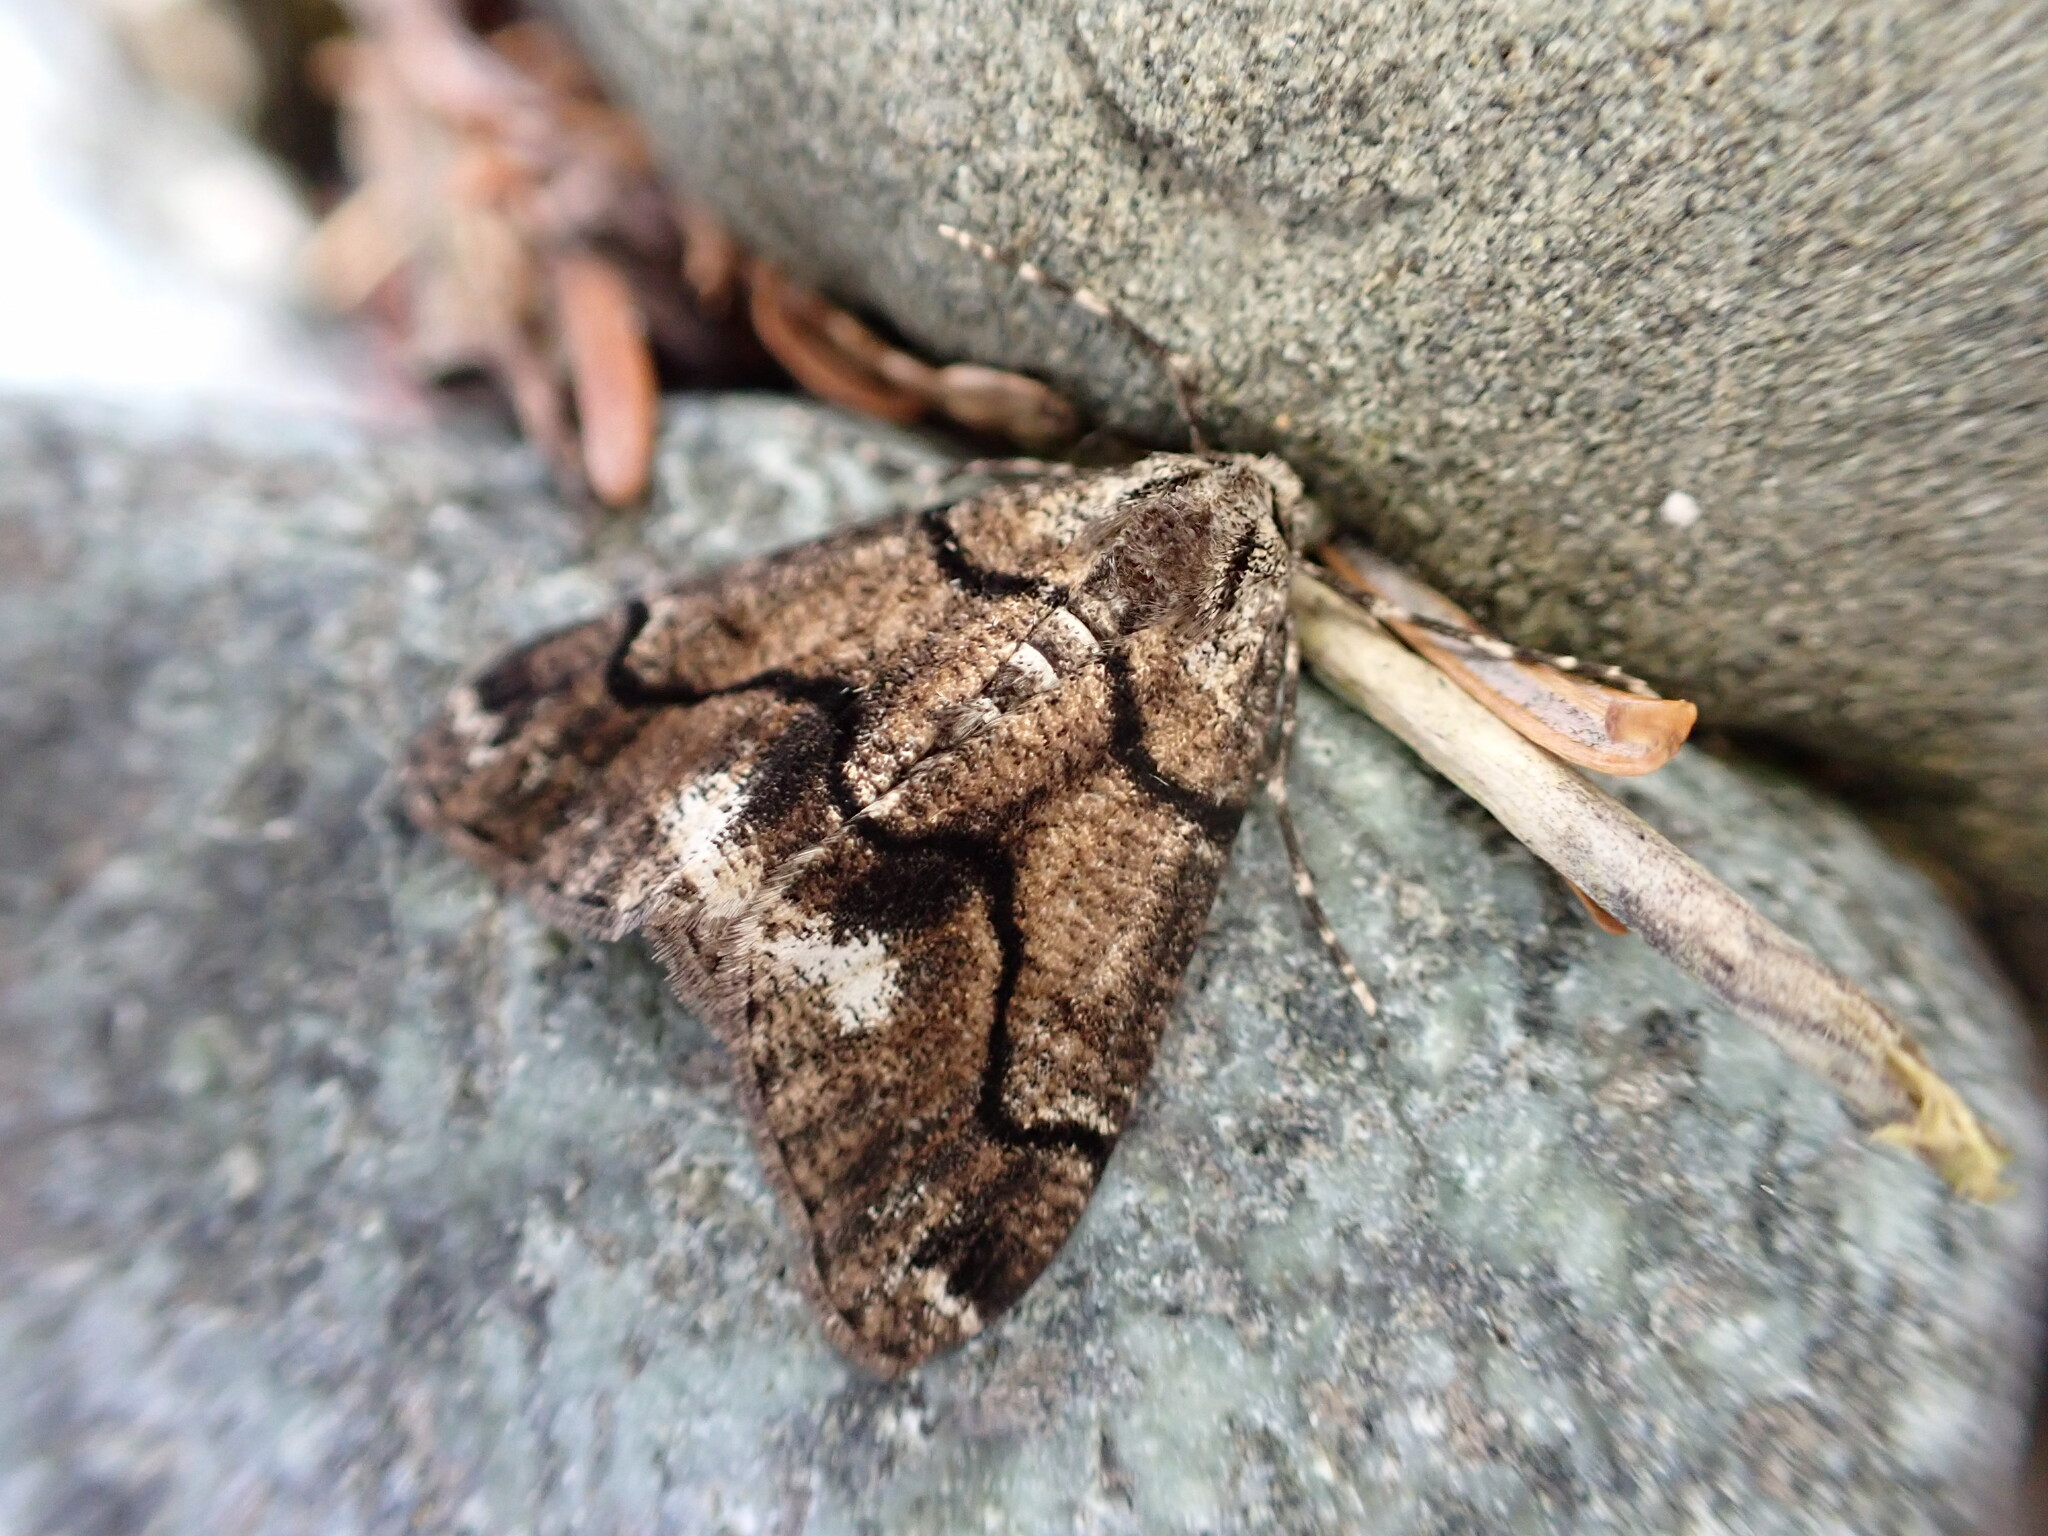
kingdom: Animalia
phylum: Arthropoda
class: Insecta
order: Lepidoptera
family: Geometridae
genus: Gabriola
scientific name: Gabriola dyari
